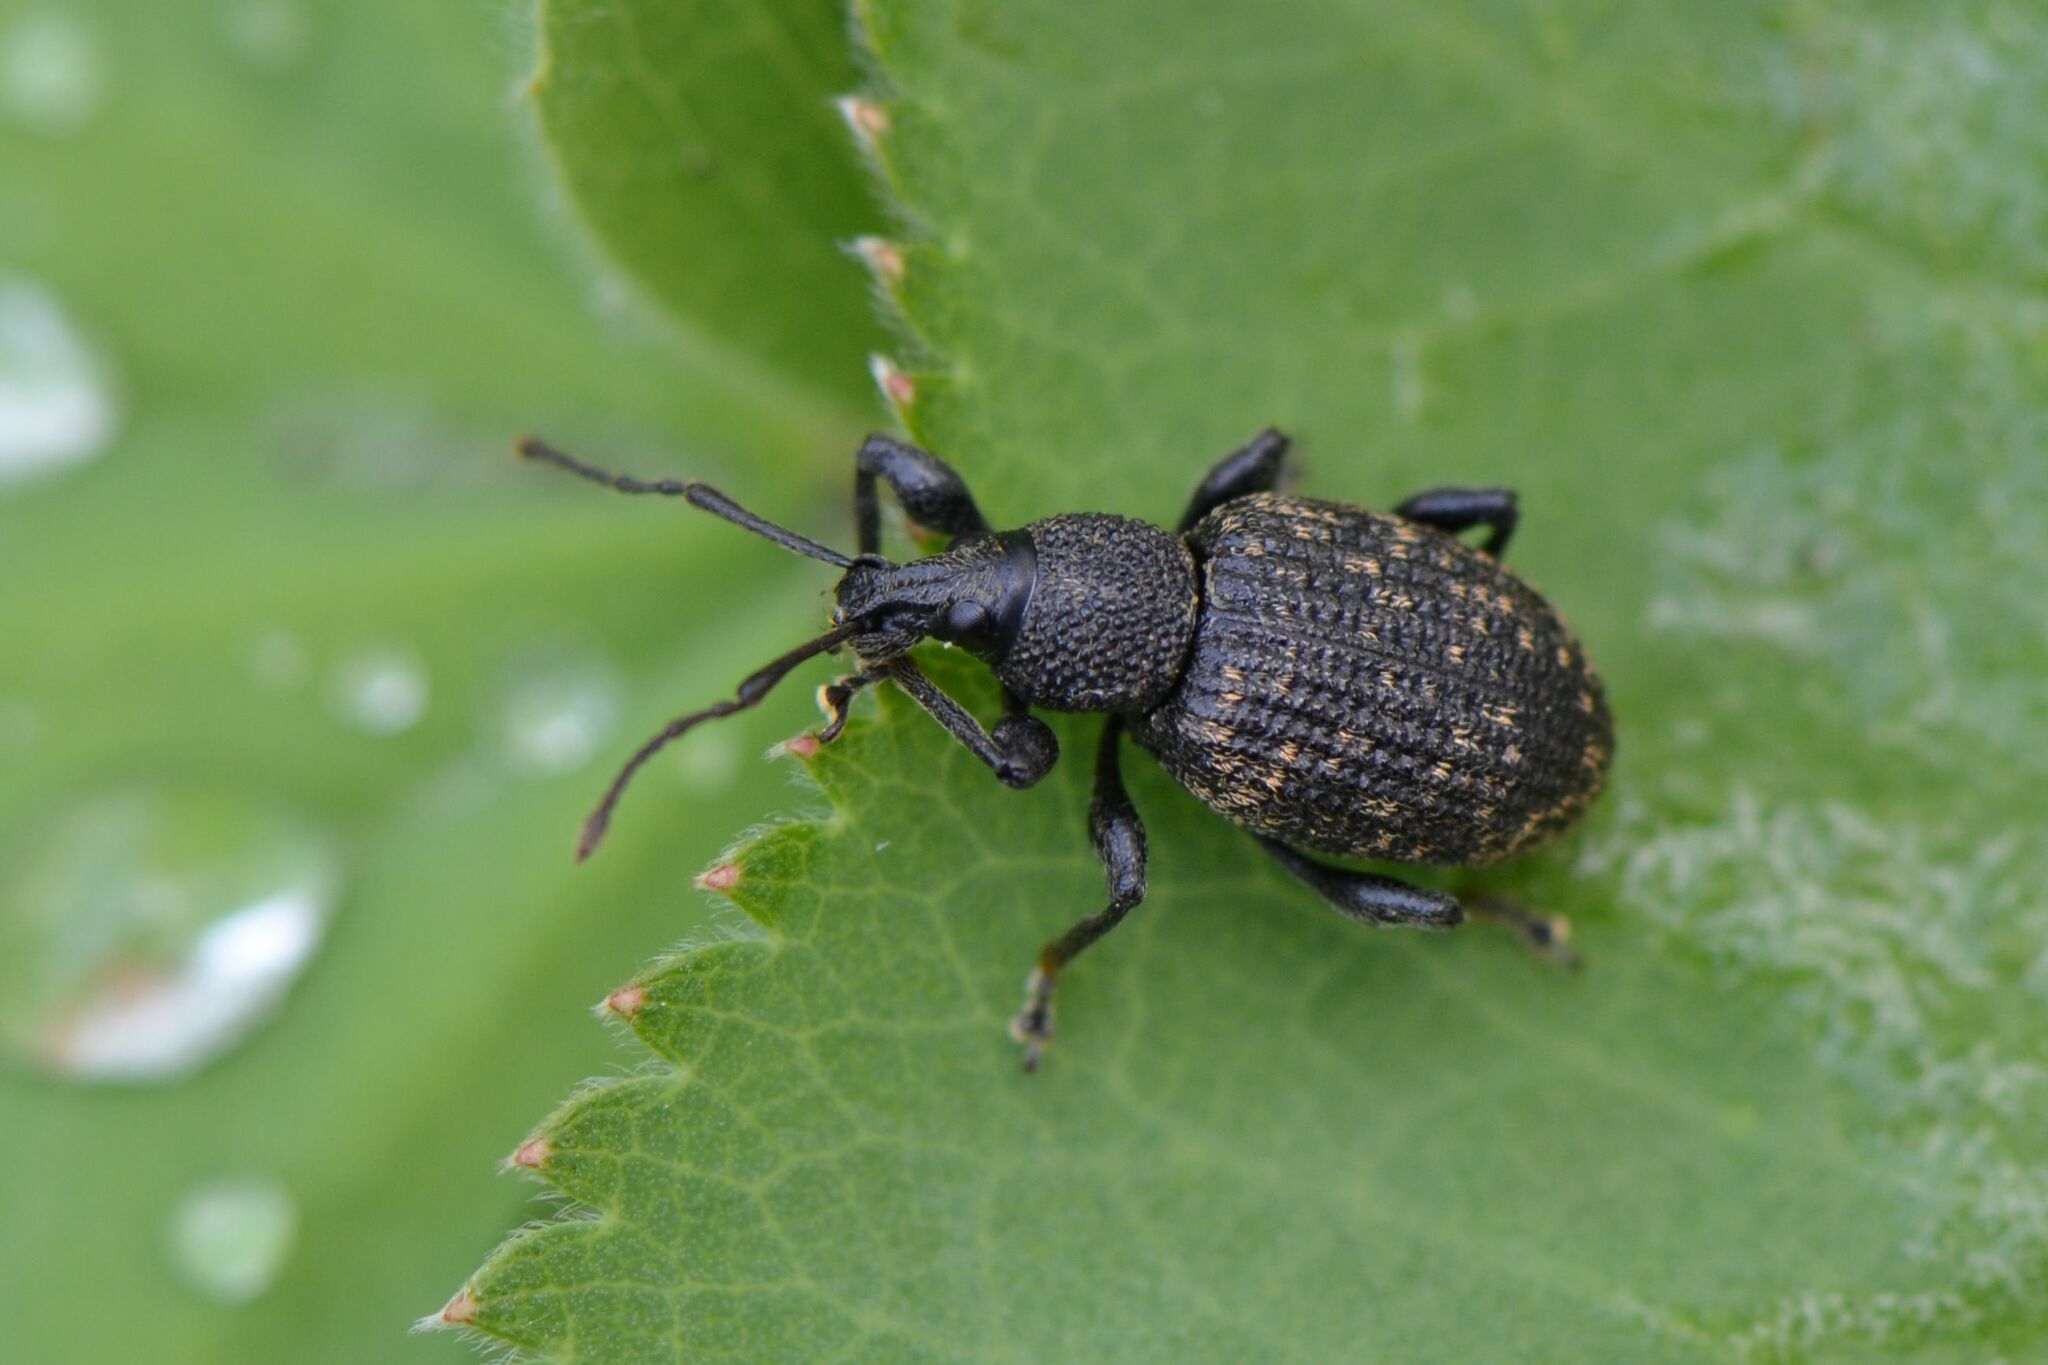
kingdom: Animalia
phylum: Arthropoda
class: Insecta
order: Coleoptera
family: Curculionidae
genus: Otiorhynchus
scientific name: Otiorhynchus sulcatus
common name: Black vine weevil
